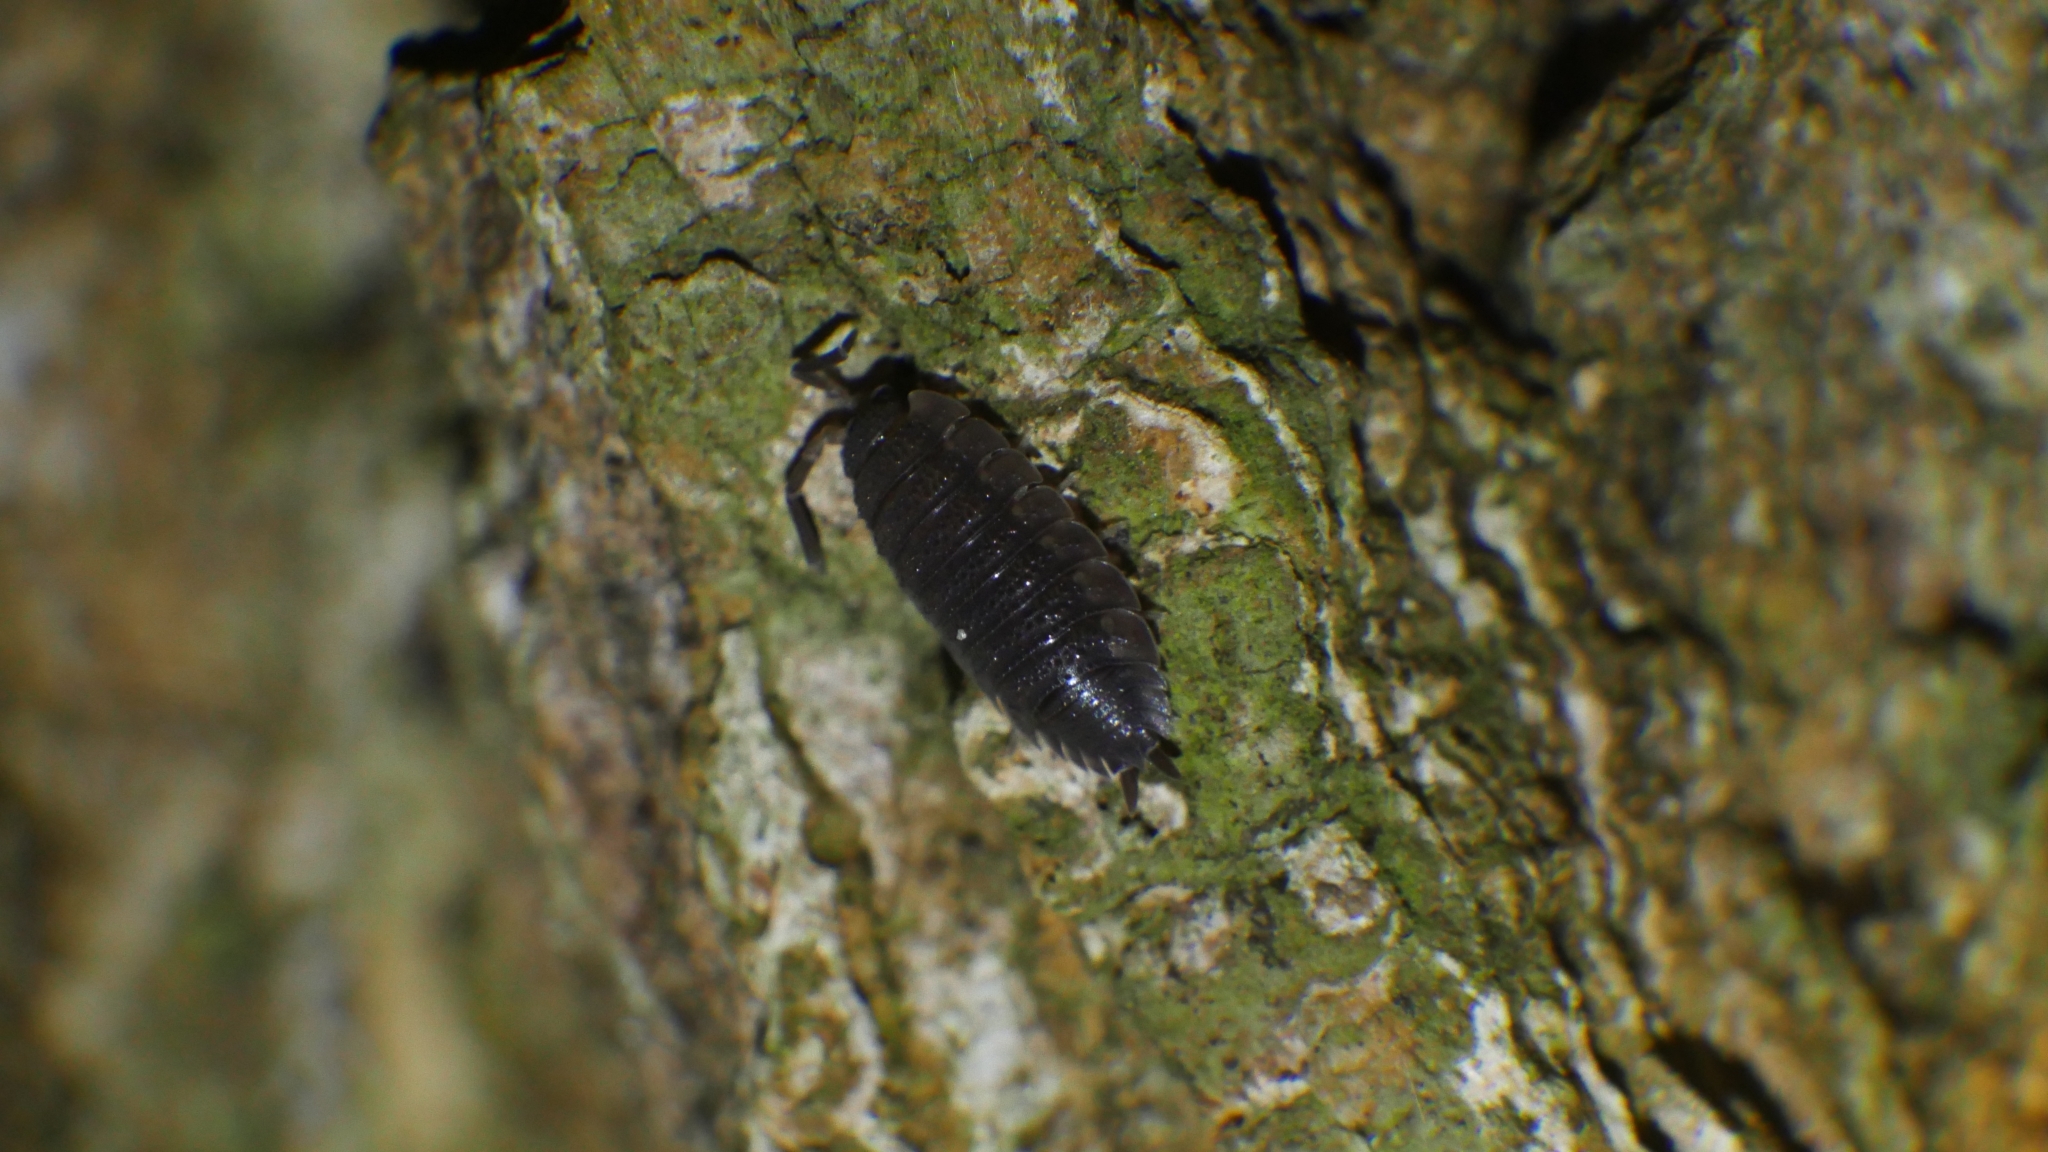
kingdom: Animalia
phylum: Arthropoda
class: Malacostraca
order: Isopoda
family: Porcellionidae
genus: Porcellio
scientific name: Porcellio scaber
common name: Common rough woodlouse
